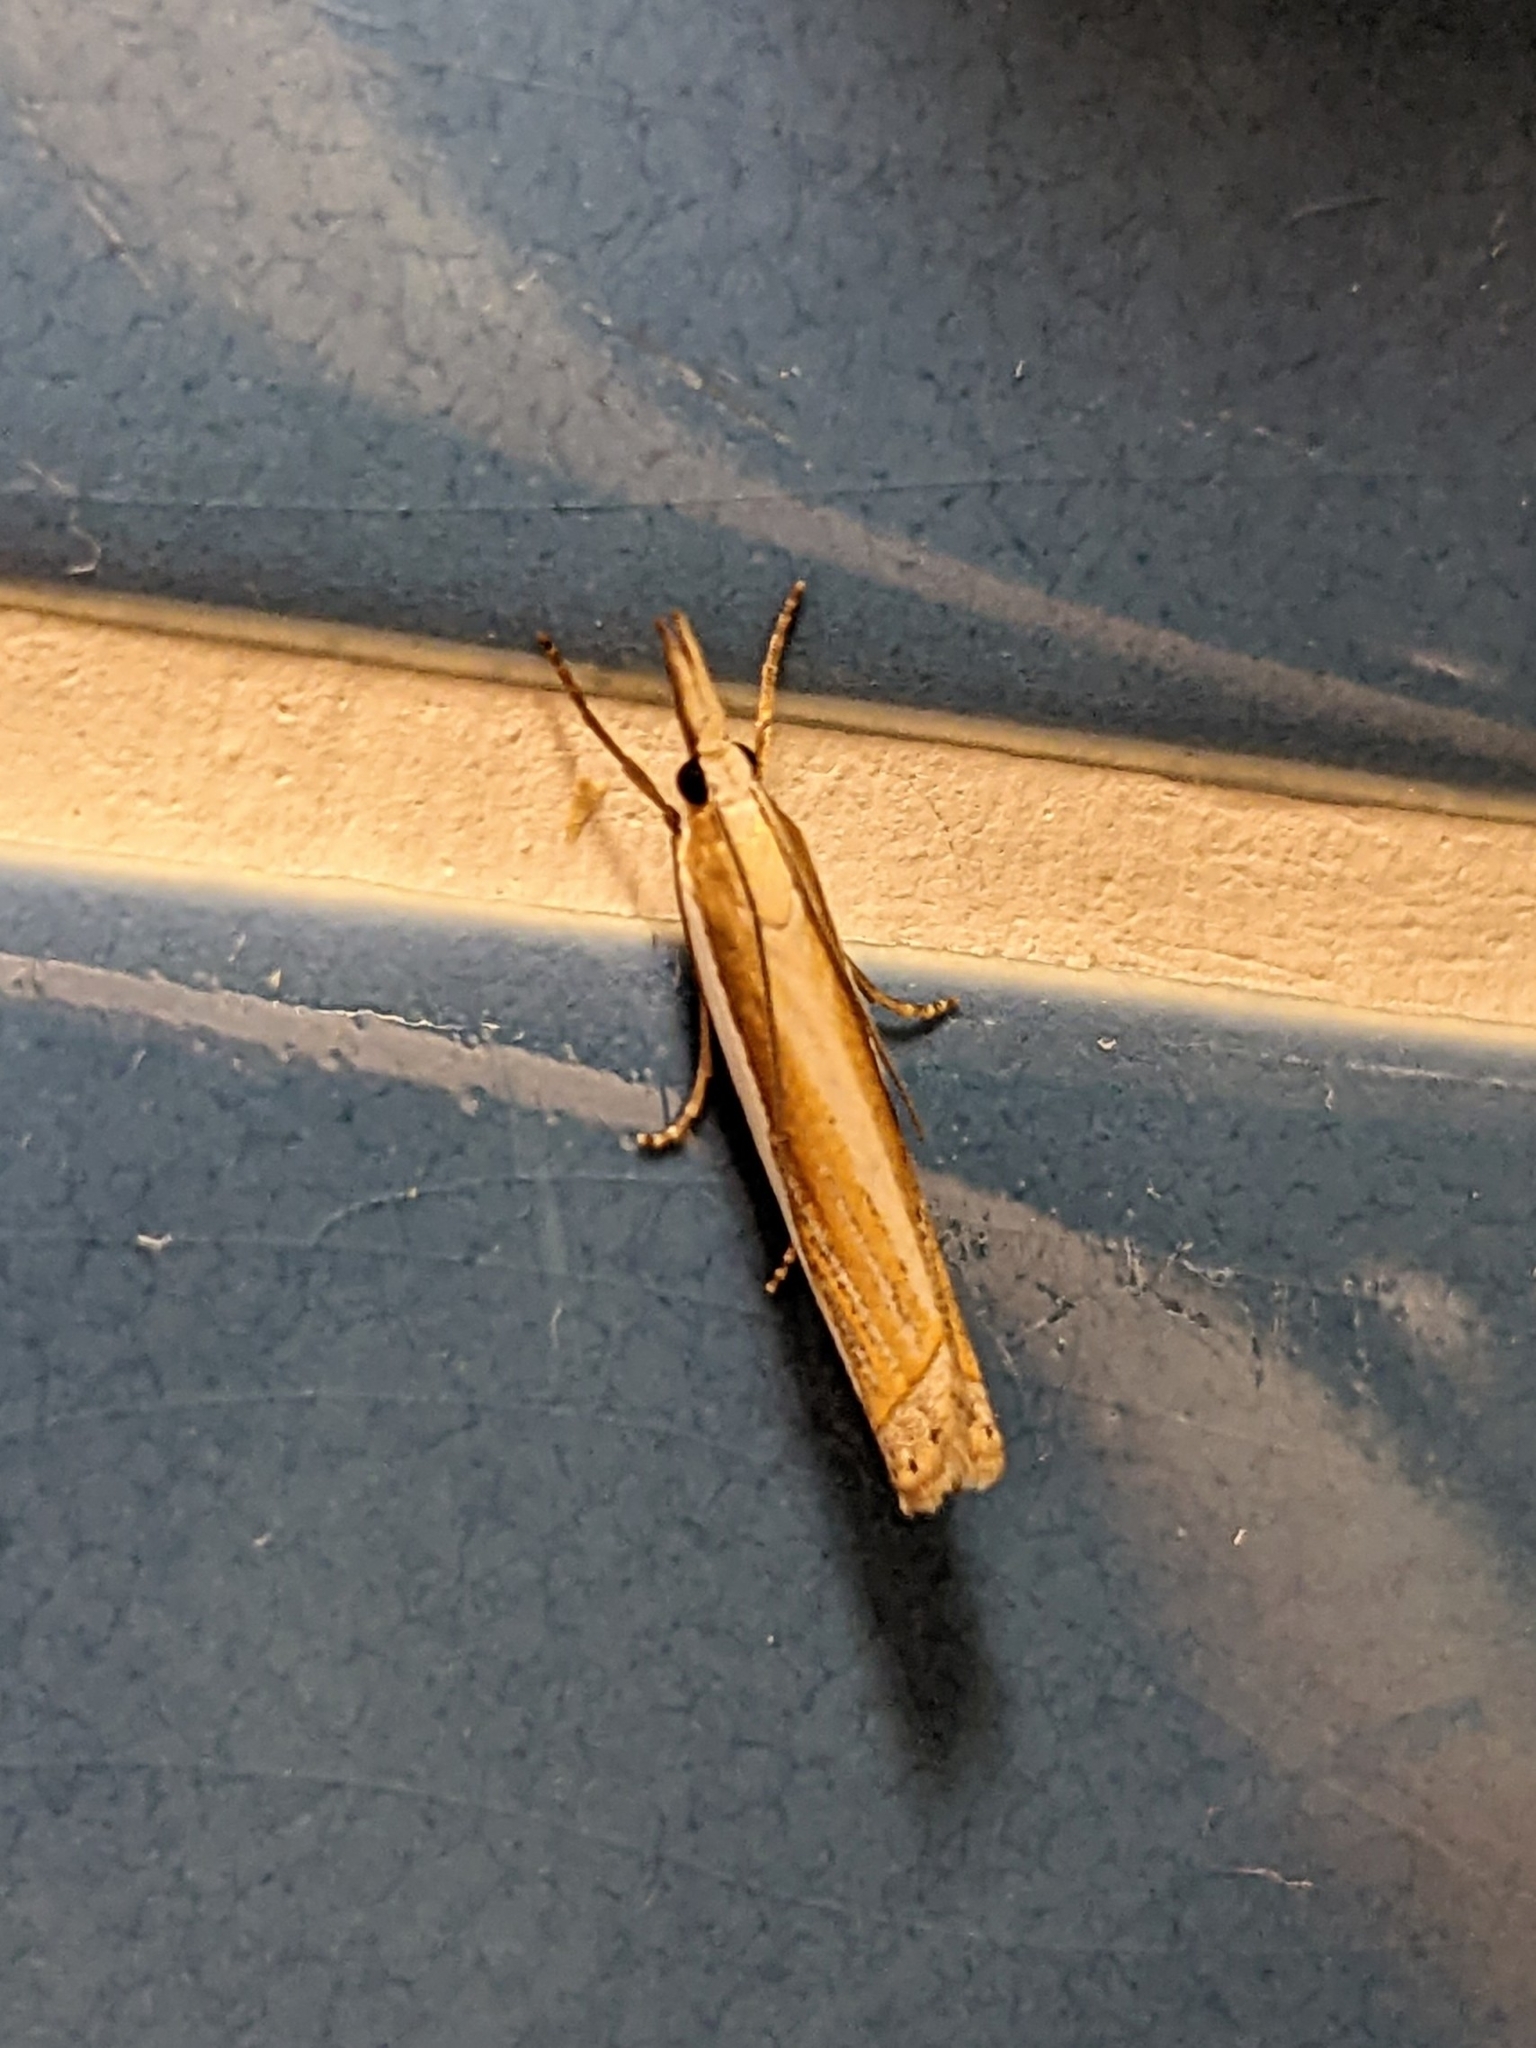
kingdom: Animalia
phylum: Arthropoda
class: Insecta
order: Lepidoptera
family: Crambidae
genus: Crambus
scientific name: Crambus pascuella
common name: Inlaid grass-veneer
